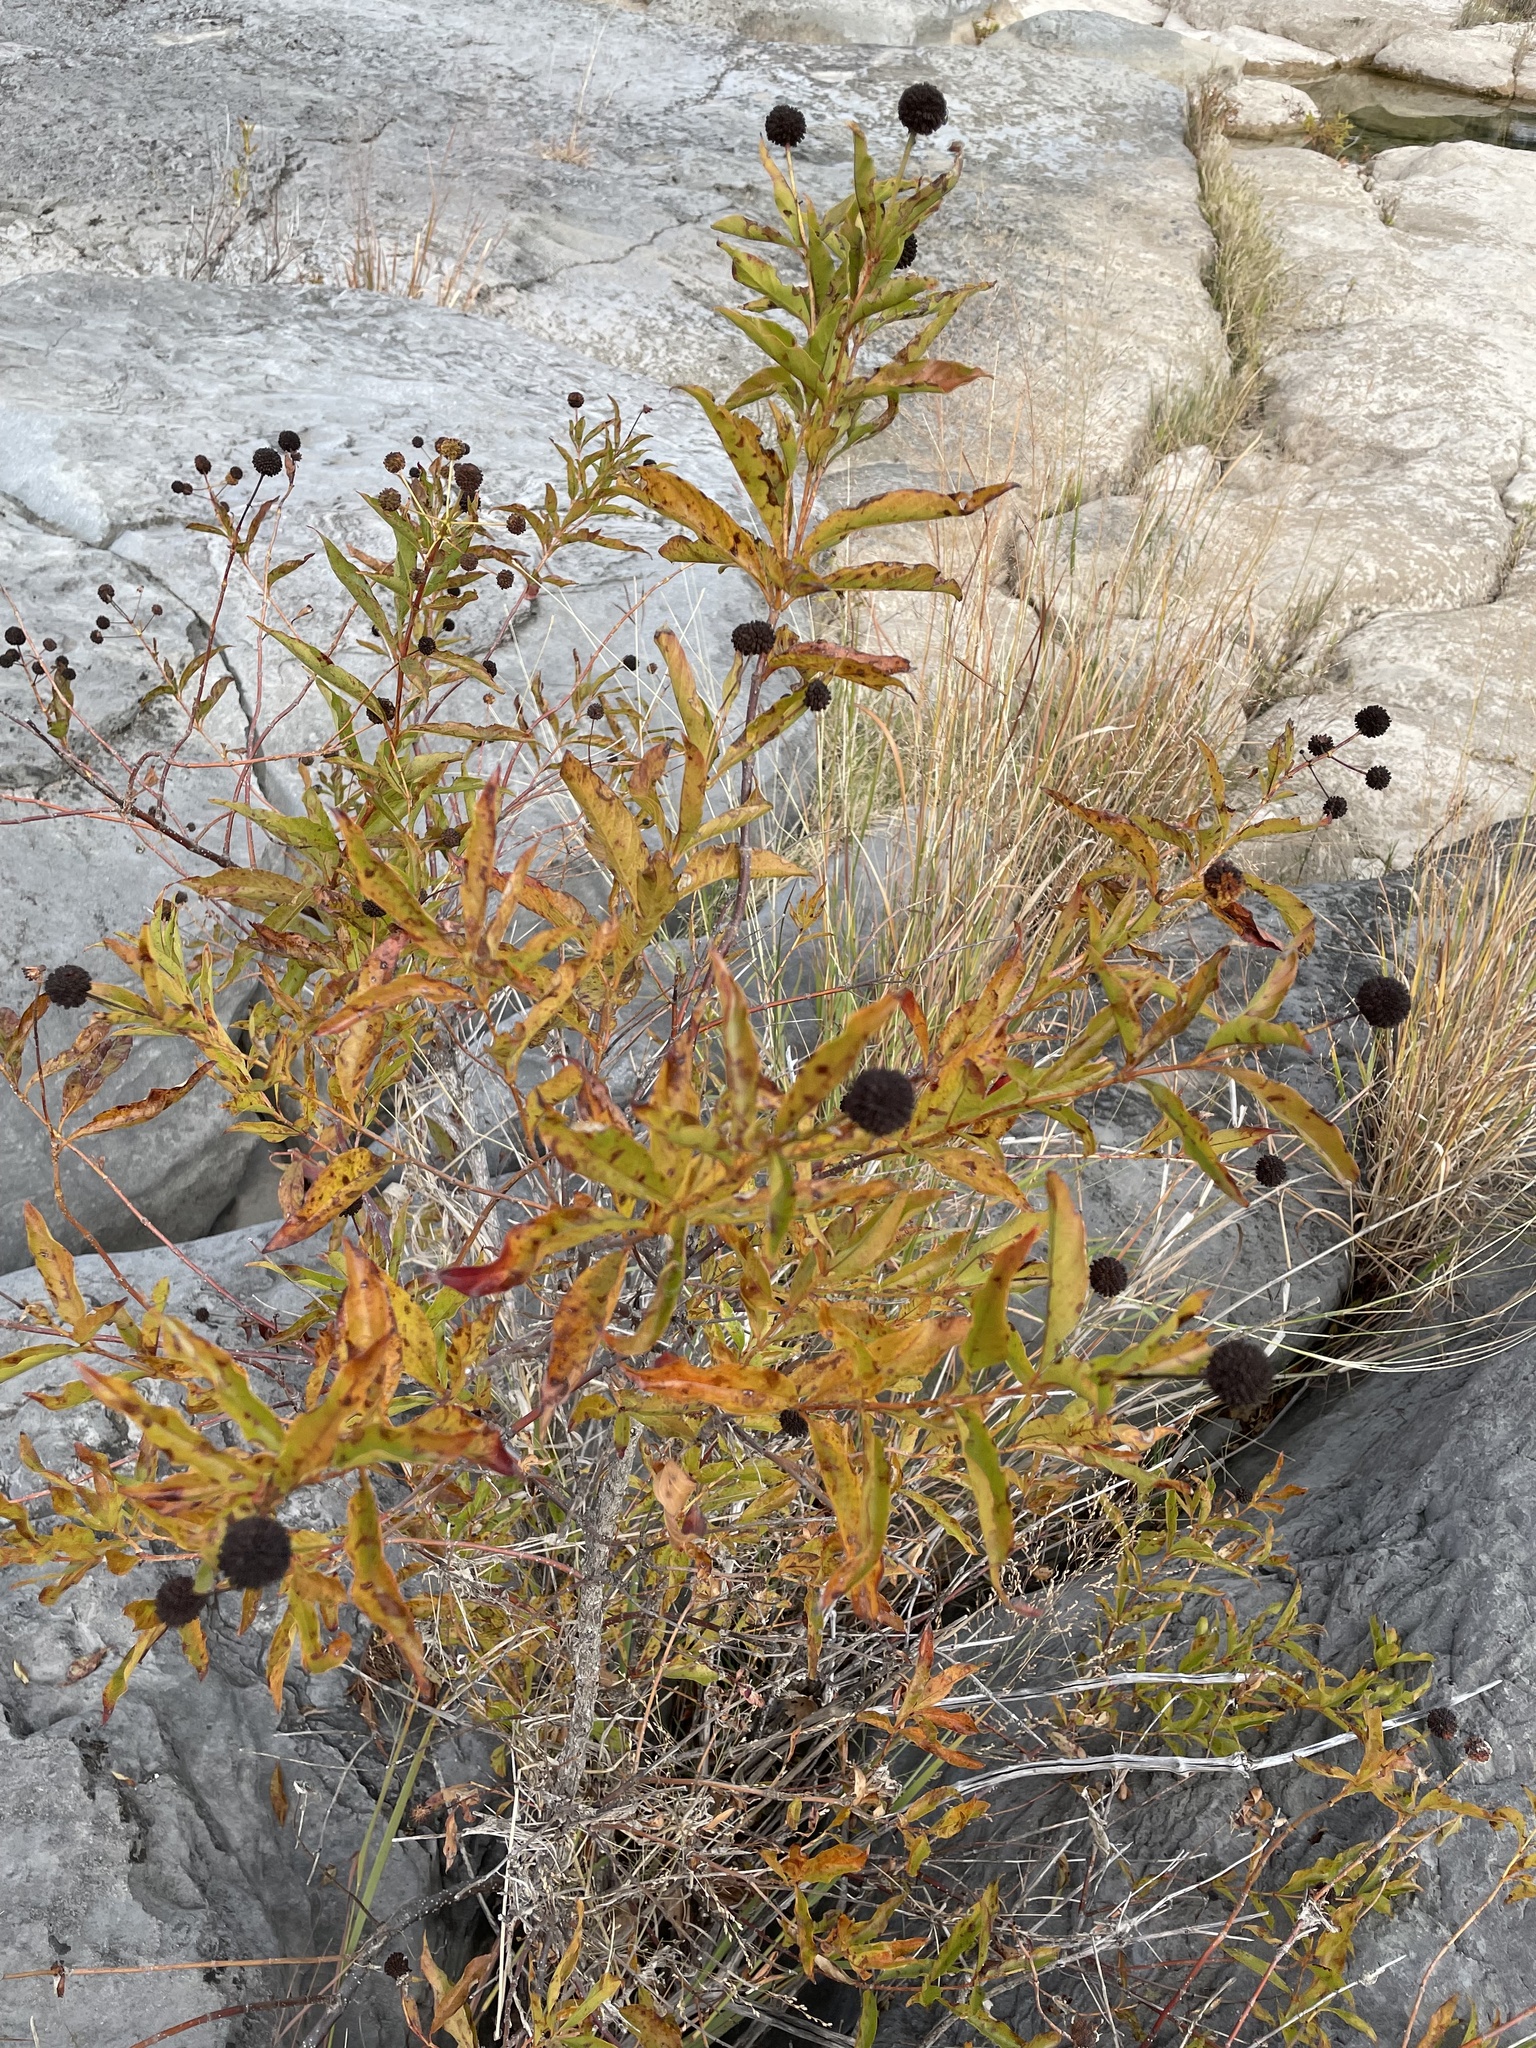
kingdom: Plantae
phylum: Tracheophyta
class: Magnoliopsida
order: Gentianales
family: Rubiaceae
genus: Cephalanthus
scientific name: Cephalanthus occidentalis
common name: Button-willow
